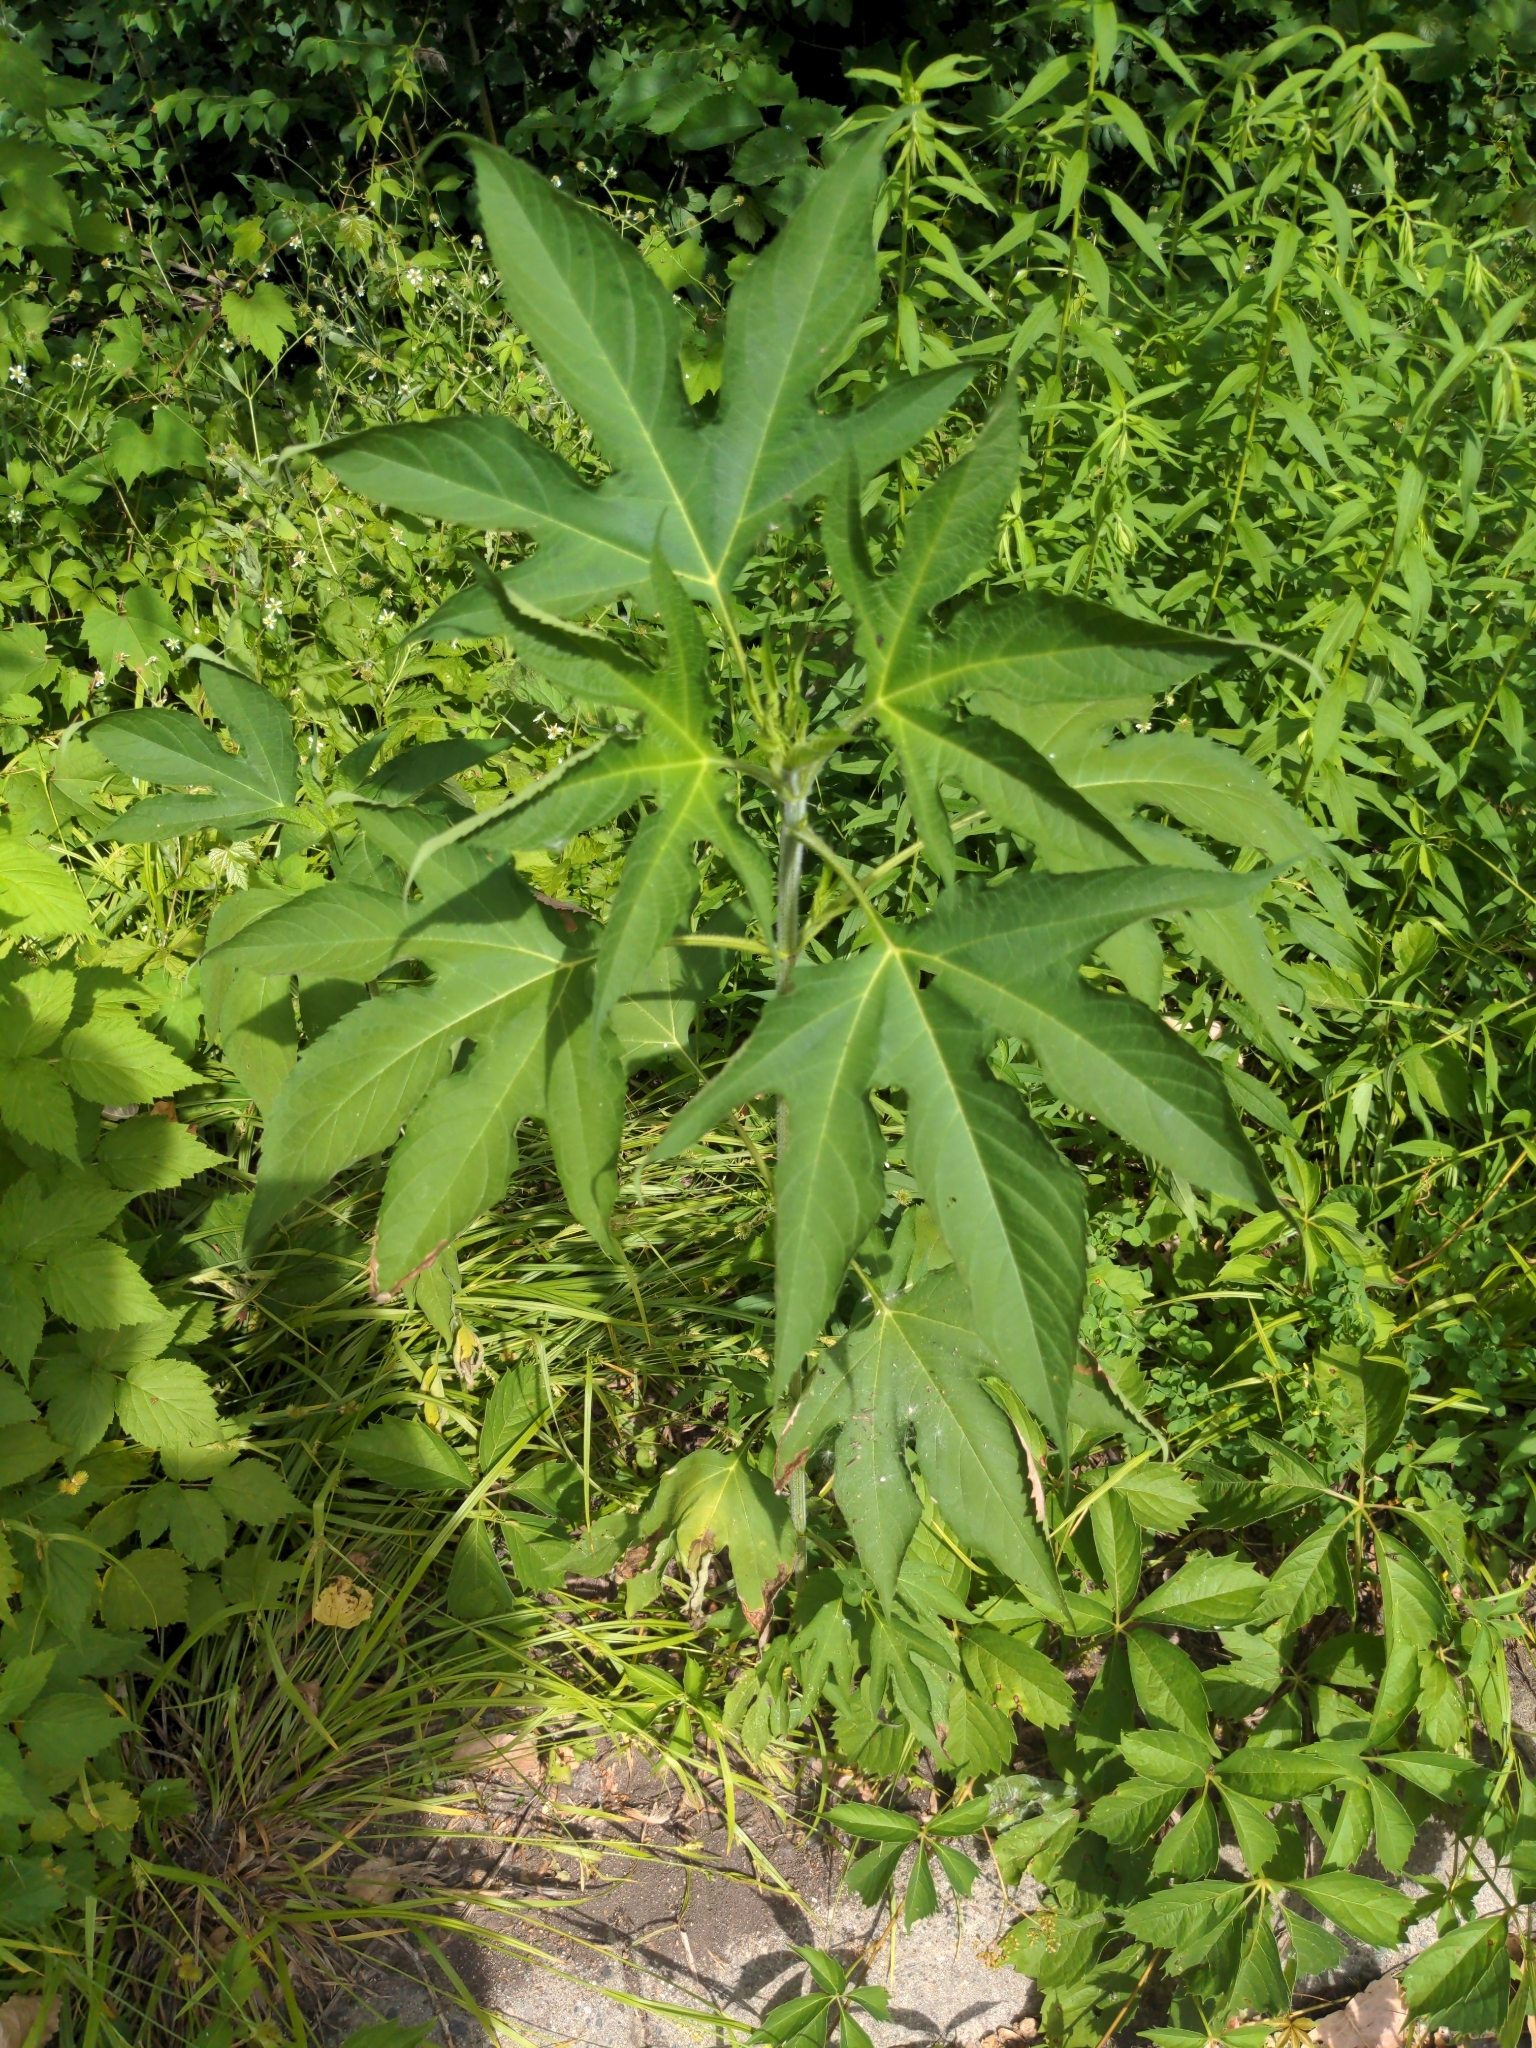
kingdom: Plantae
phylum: Tracheophyta
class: Magnoliopsida
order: Asterales
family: Asteraceae
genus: Ambrosia
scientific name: Ambrosia trifida
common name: Giant ragweed
